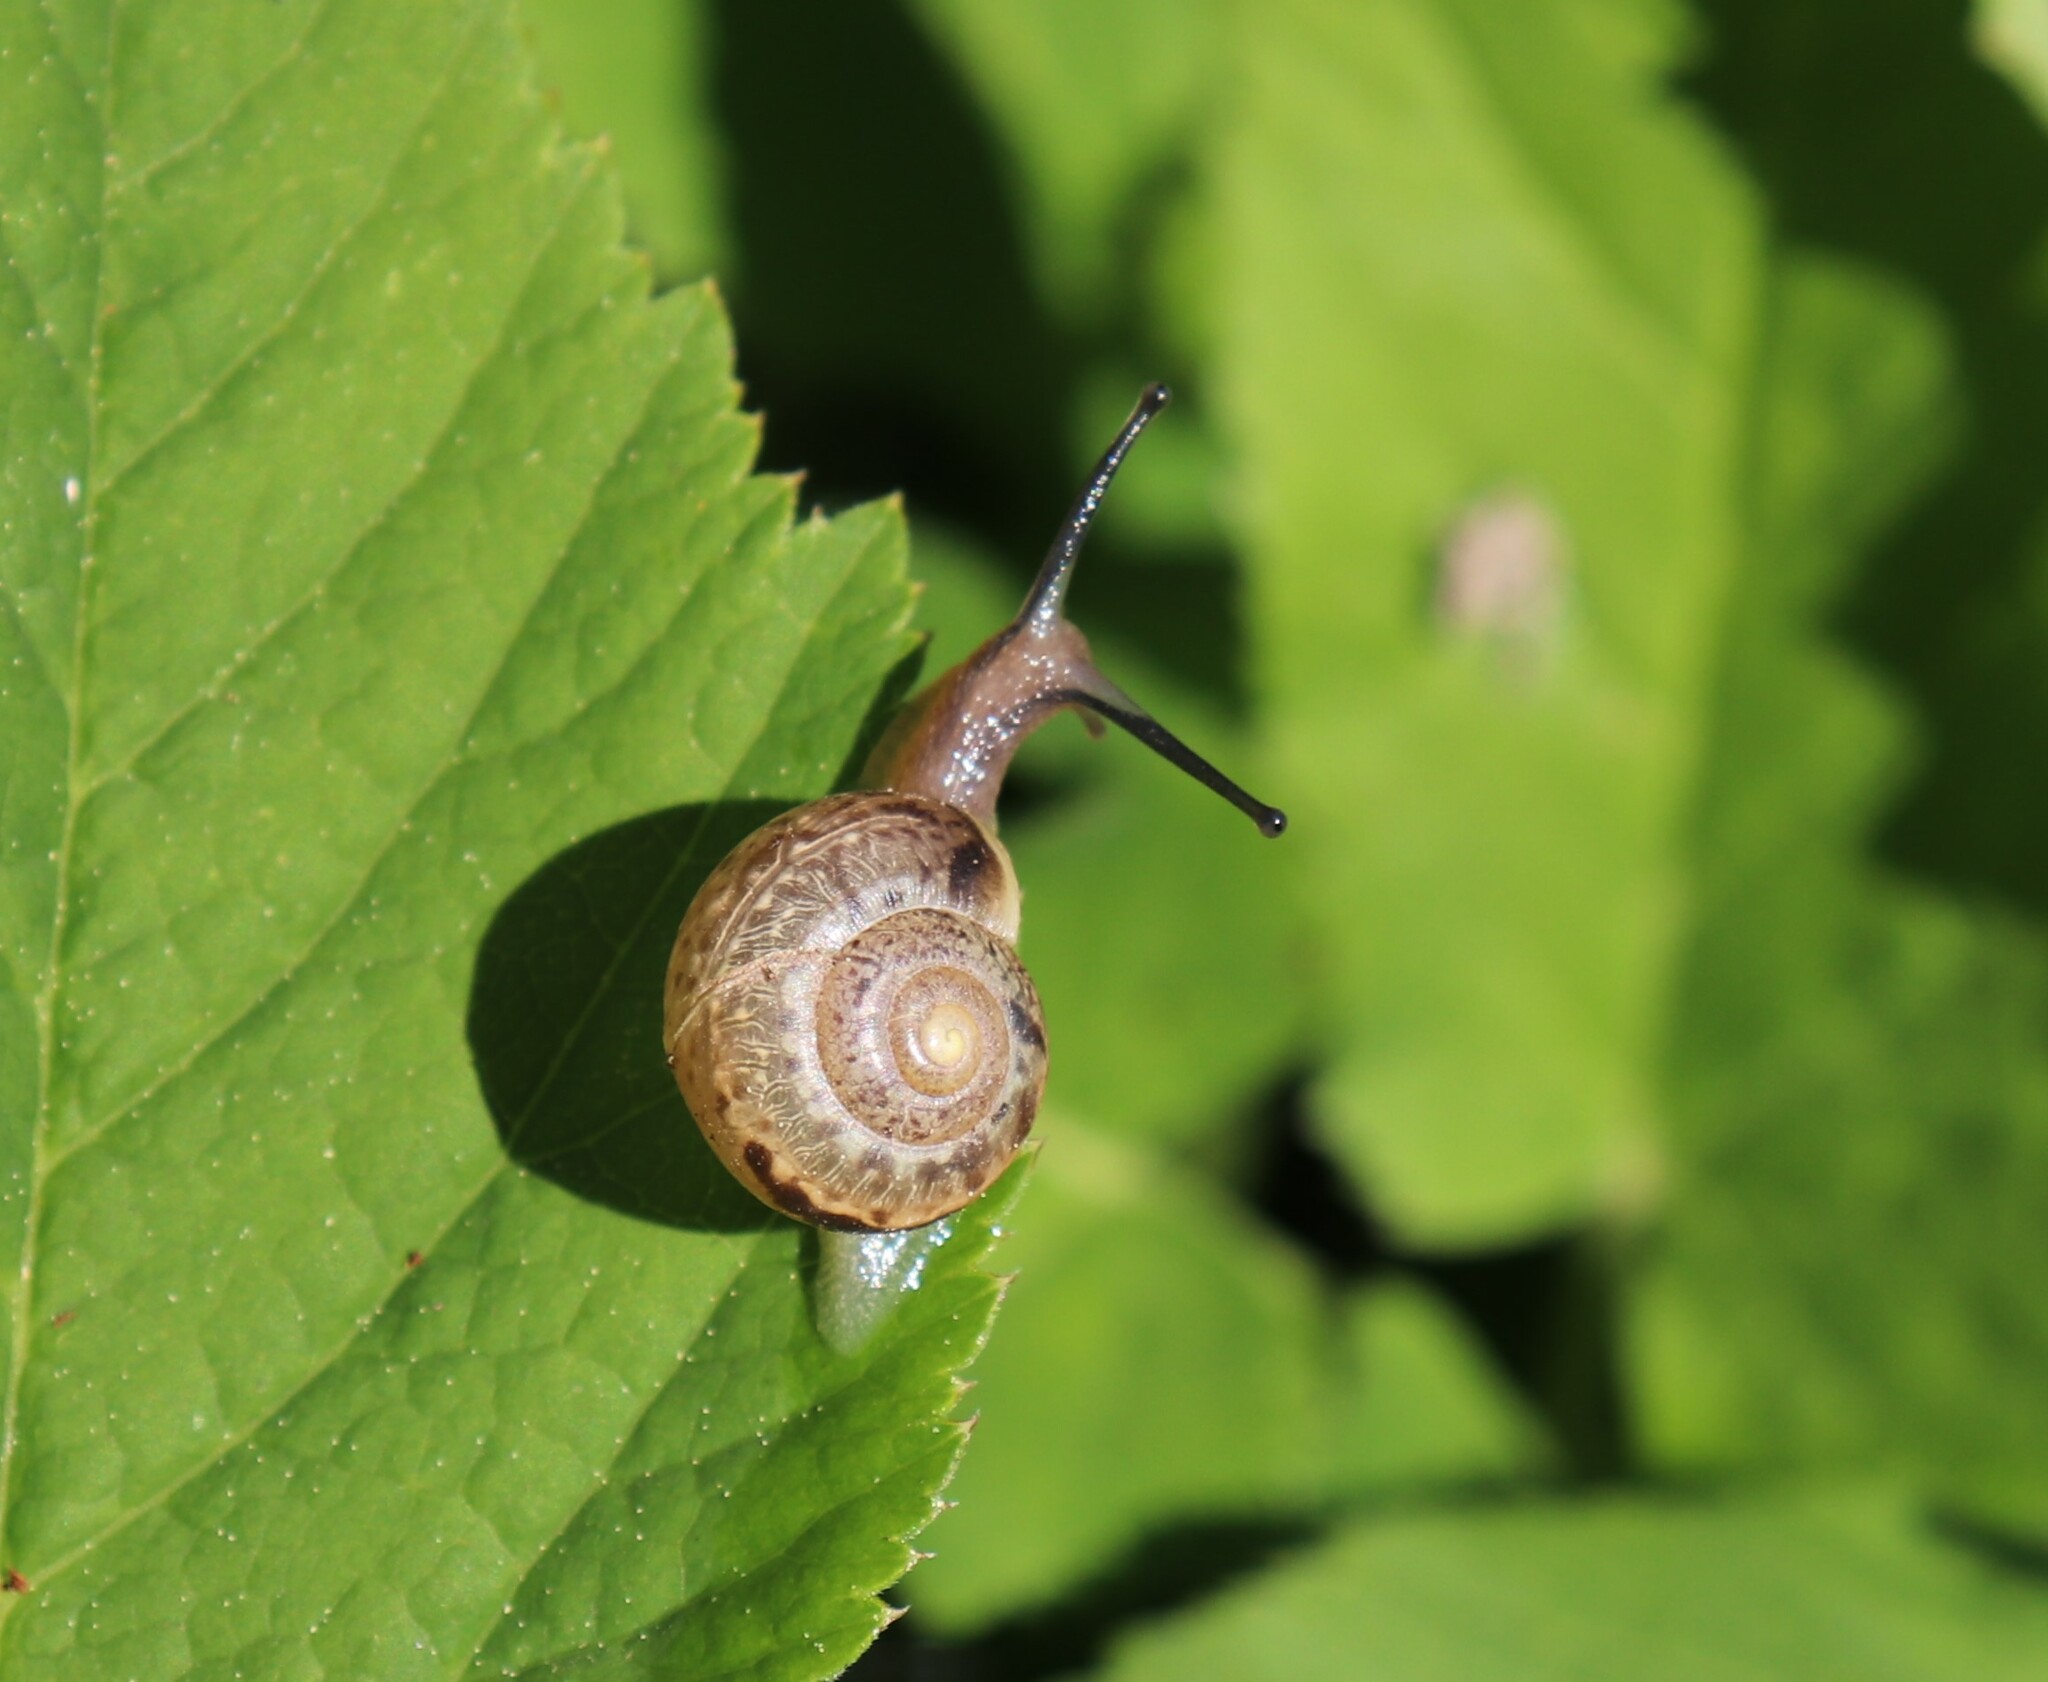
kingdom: Animalia
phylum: Mollusca
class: Gastropoda
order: Stylommatophora
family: Camaenidae
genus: Fruticicola
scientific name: Fruticicola fruticum
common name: Bush snail
